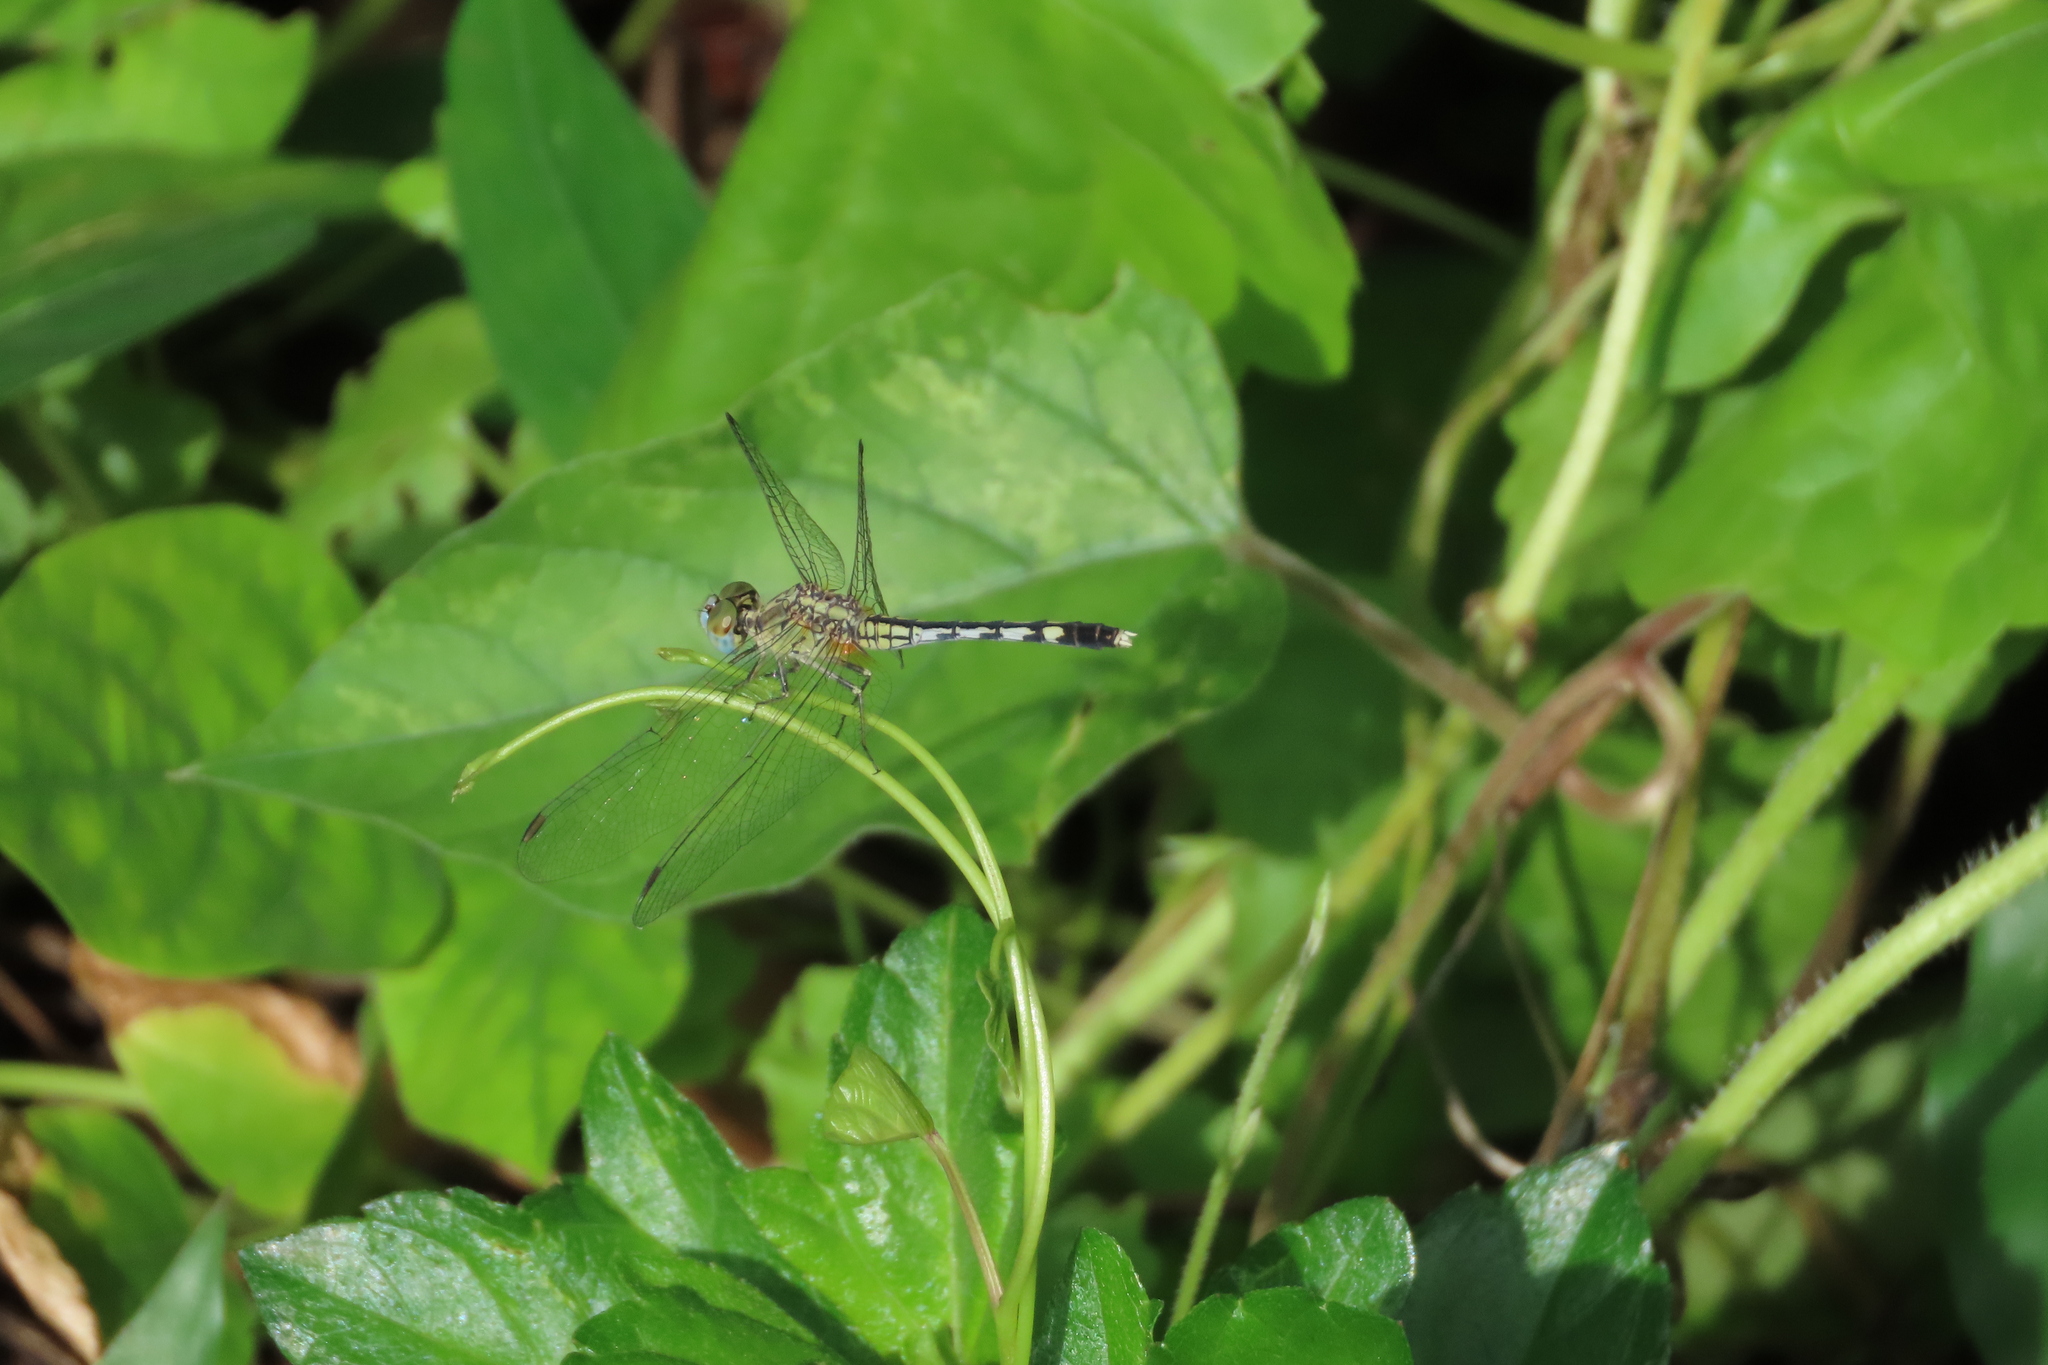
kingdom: Animalia
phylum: Arthropoda
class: Insecta
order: Odonata
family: Libellulidae
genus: Diplacodes
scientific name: Diplacodes trivialis
